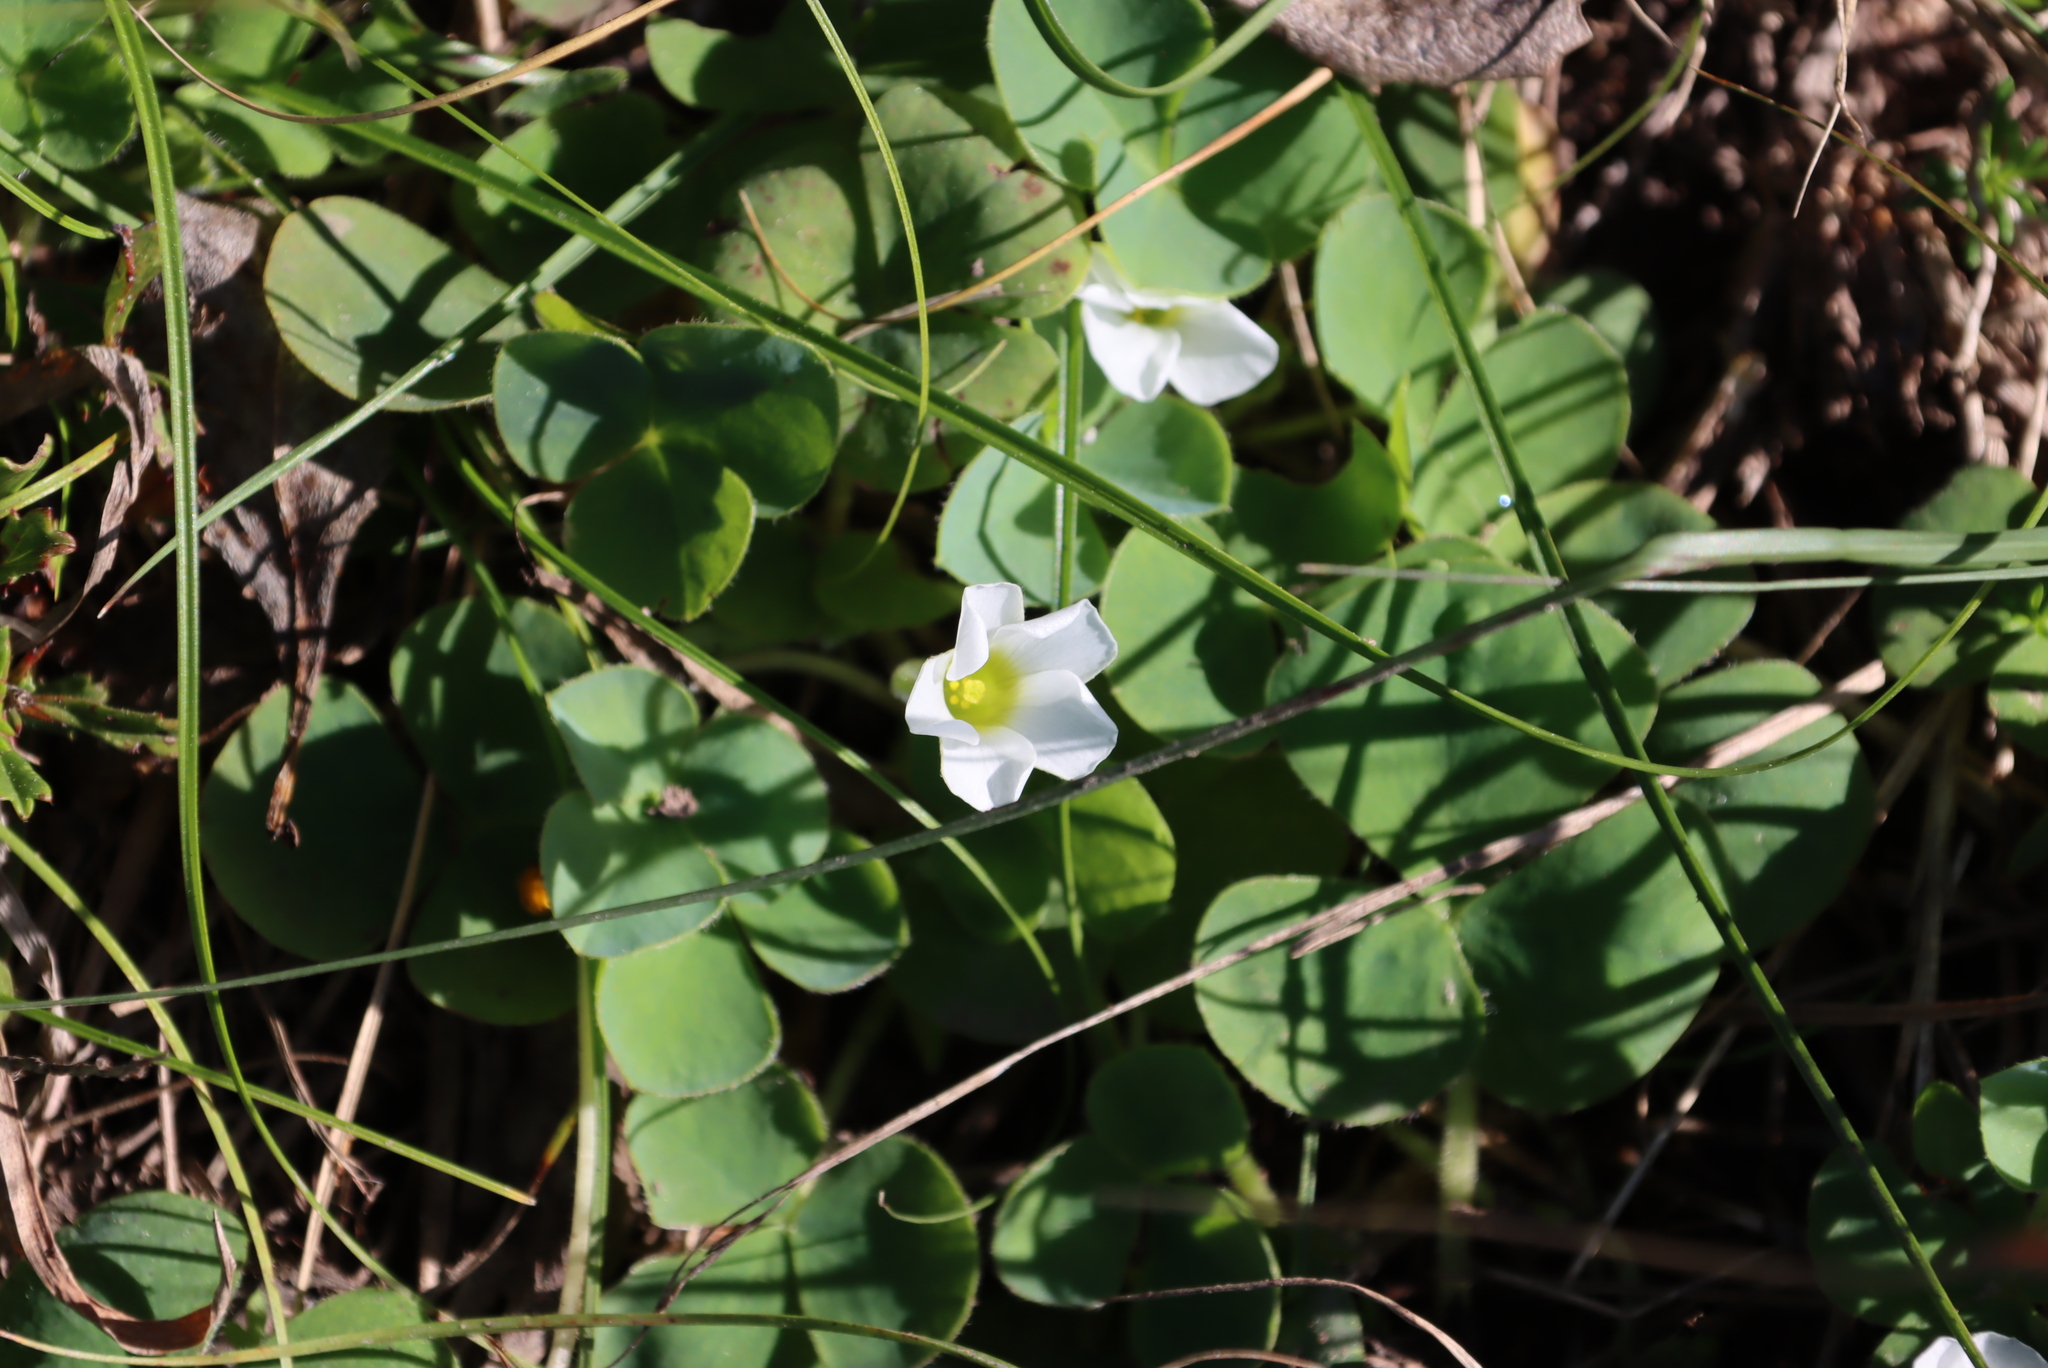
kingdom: Plantae
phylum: Tracheophyta
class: Magnoliopsida
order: Oxalidales
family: Oxalidaceae
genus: Oxalis
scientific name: Oxalis purpurea
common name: Purple woodsorrel
